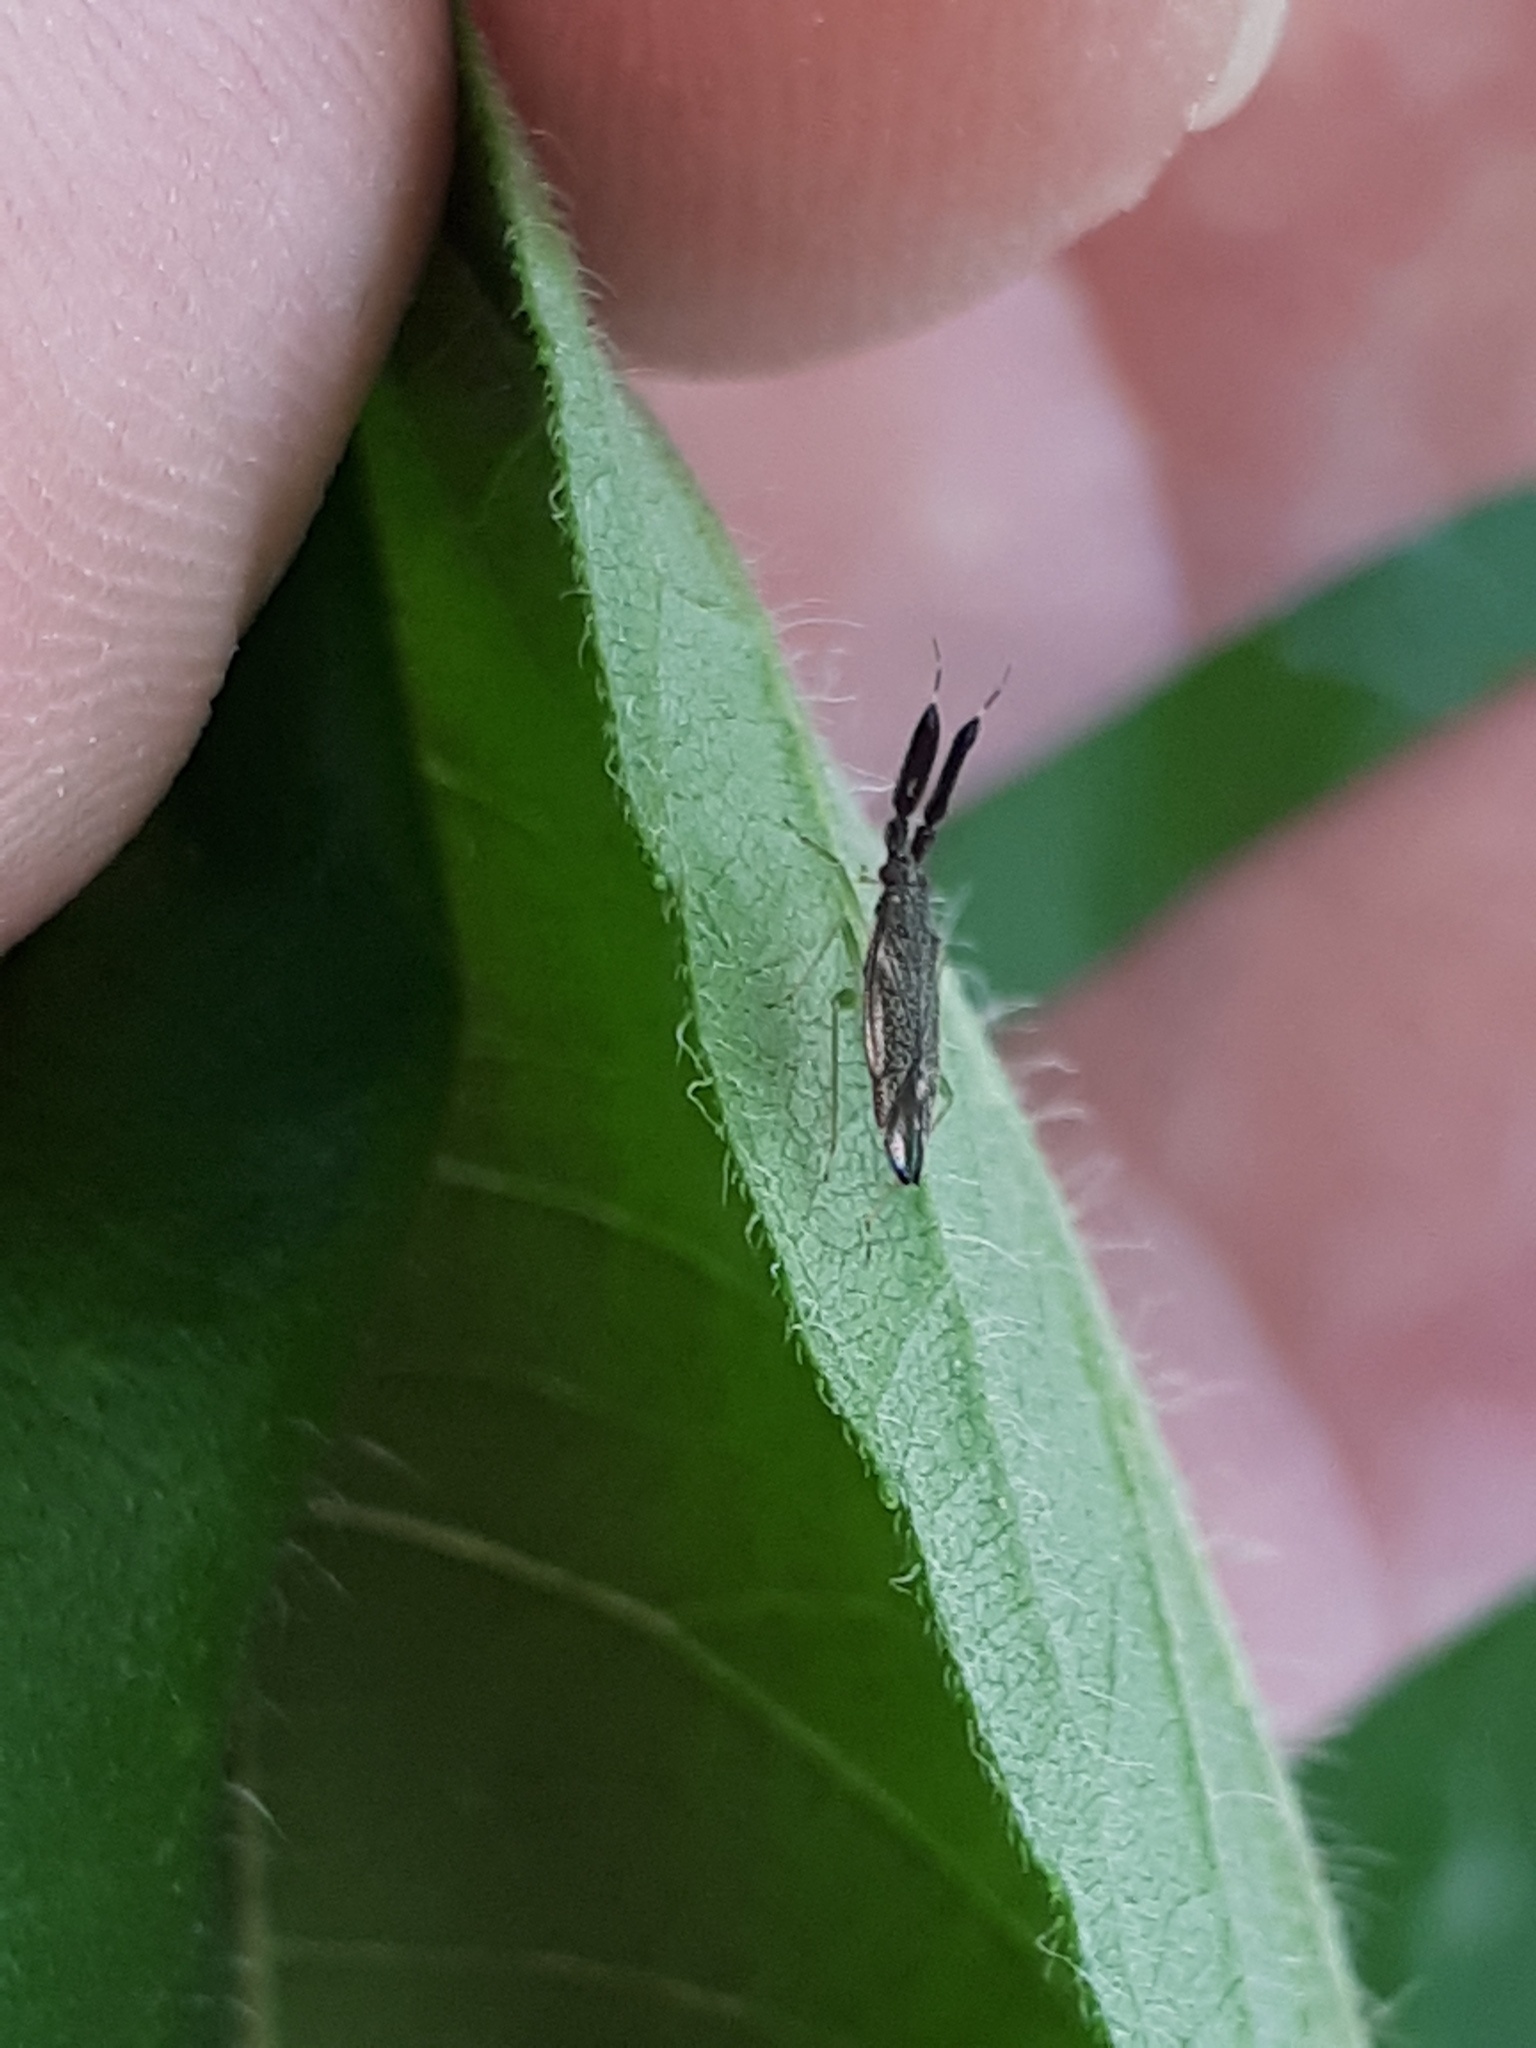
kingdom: Animalia
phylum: Arthropoda
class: Insecta
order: Hemiptera
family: Miridae
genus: Heterotoma
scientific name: Heterotoma planicornis
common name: Plant bug
